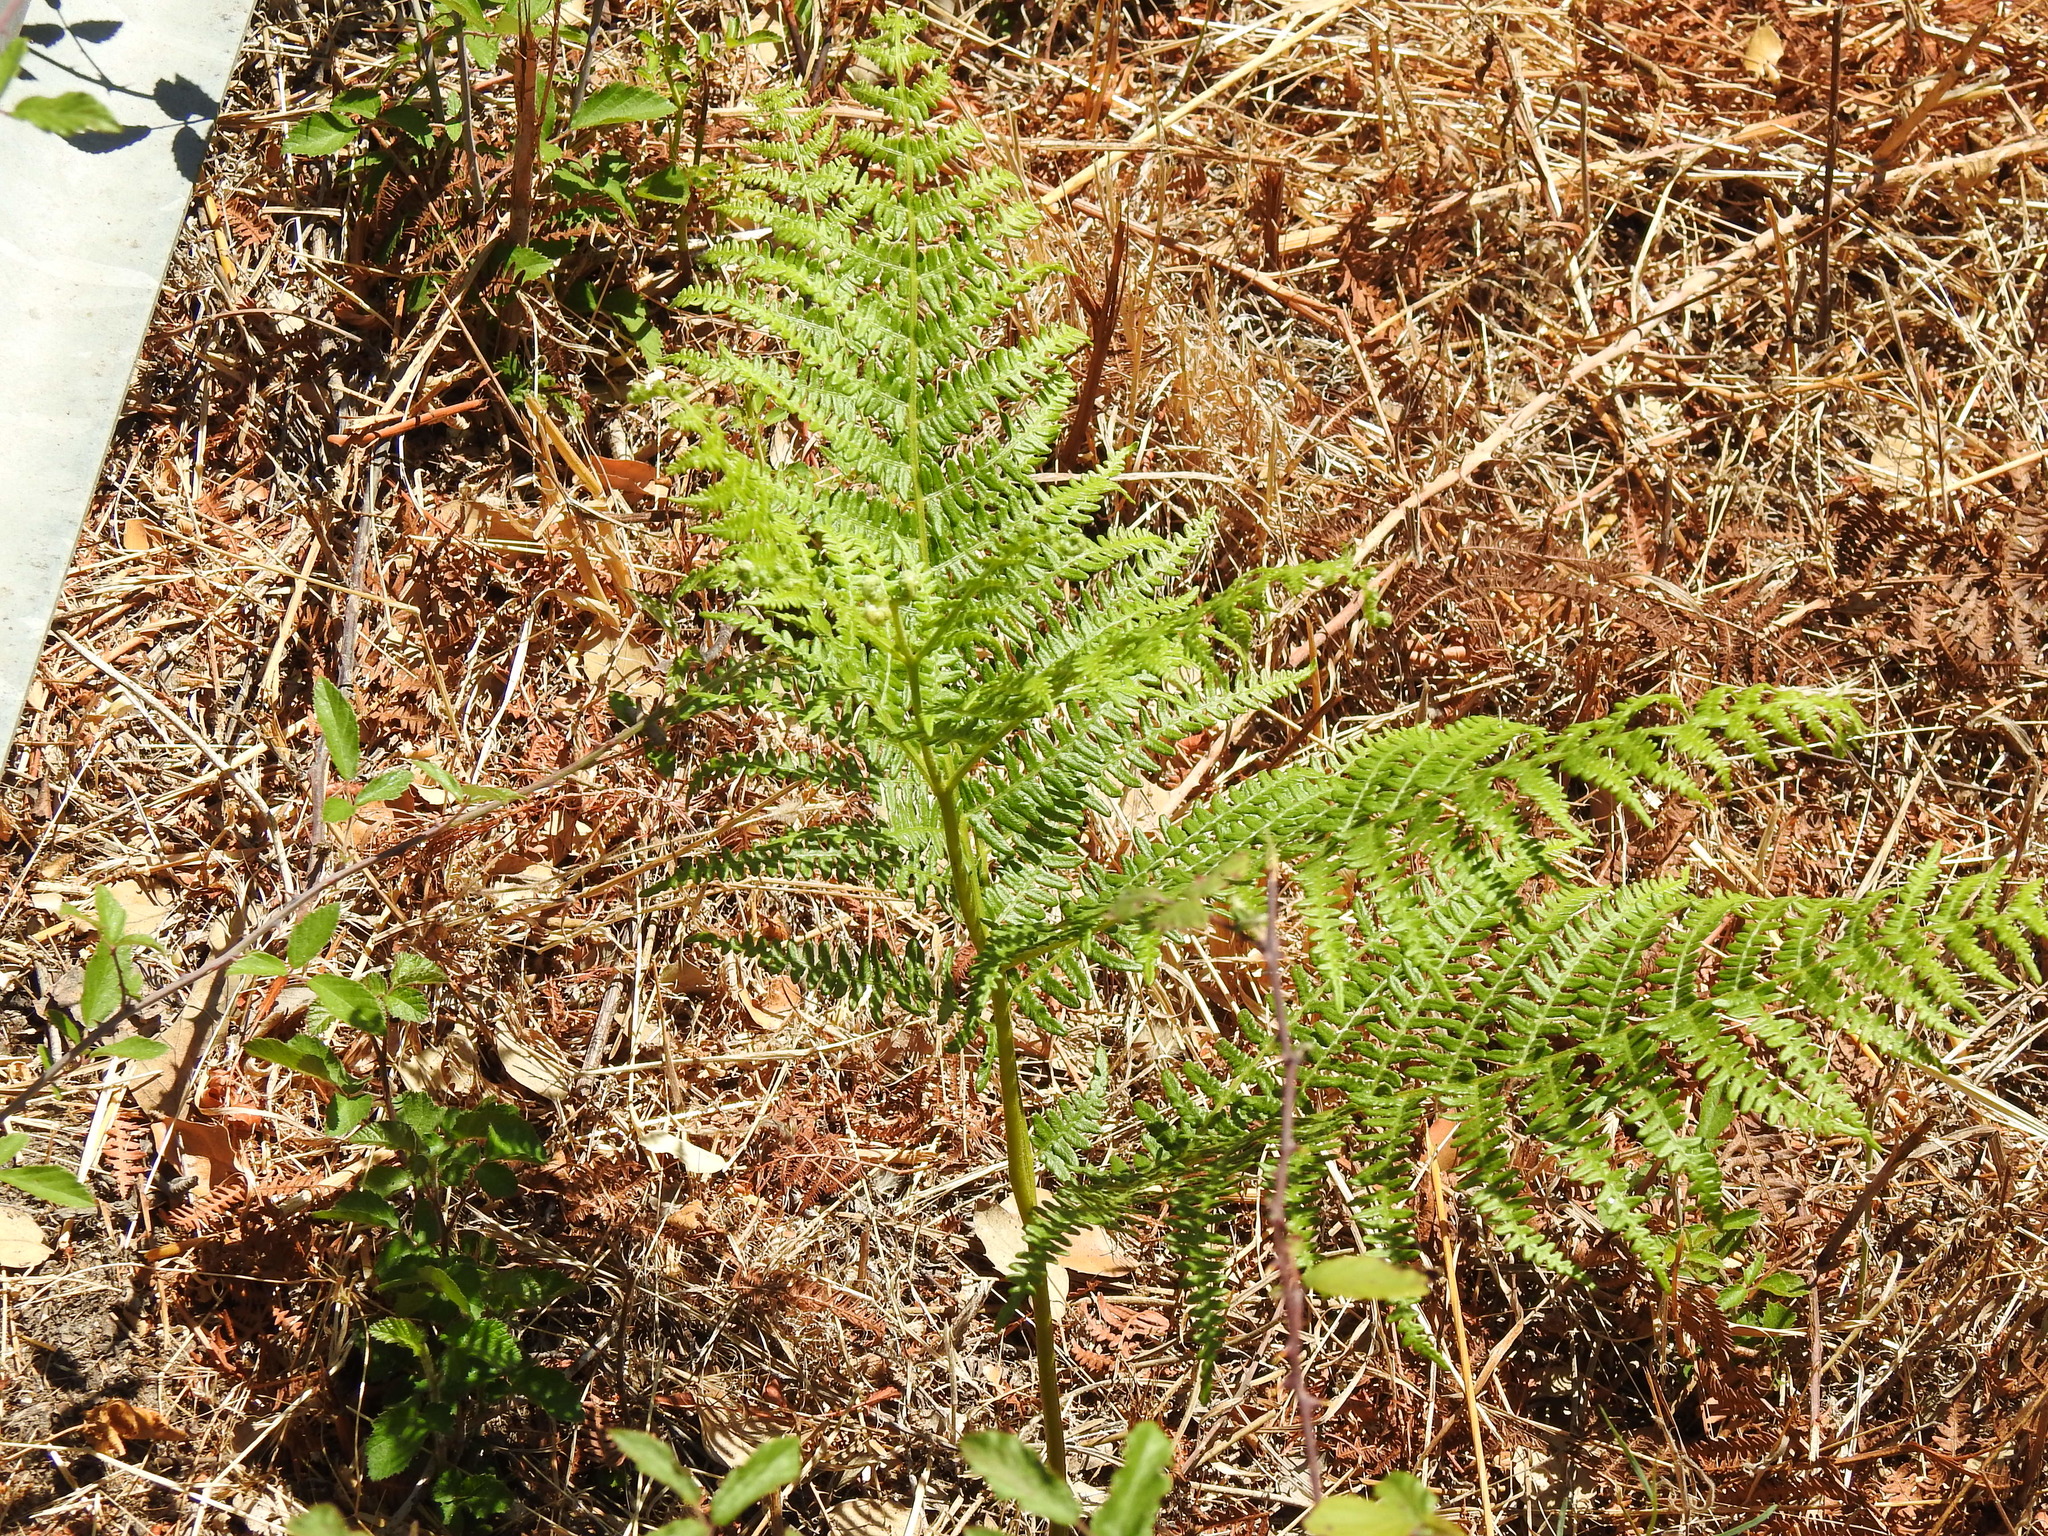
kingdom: Plantae
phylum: Tracheophyta
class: Polypodiopsida
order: Polypodiales
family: Dennstaedtiaceae
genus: Pteridium
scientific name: Pteridium aquilinum
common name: Bracken
